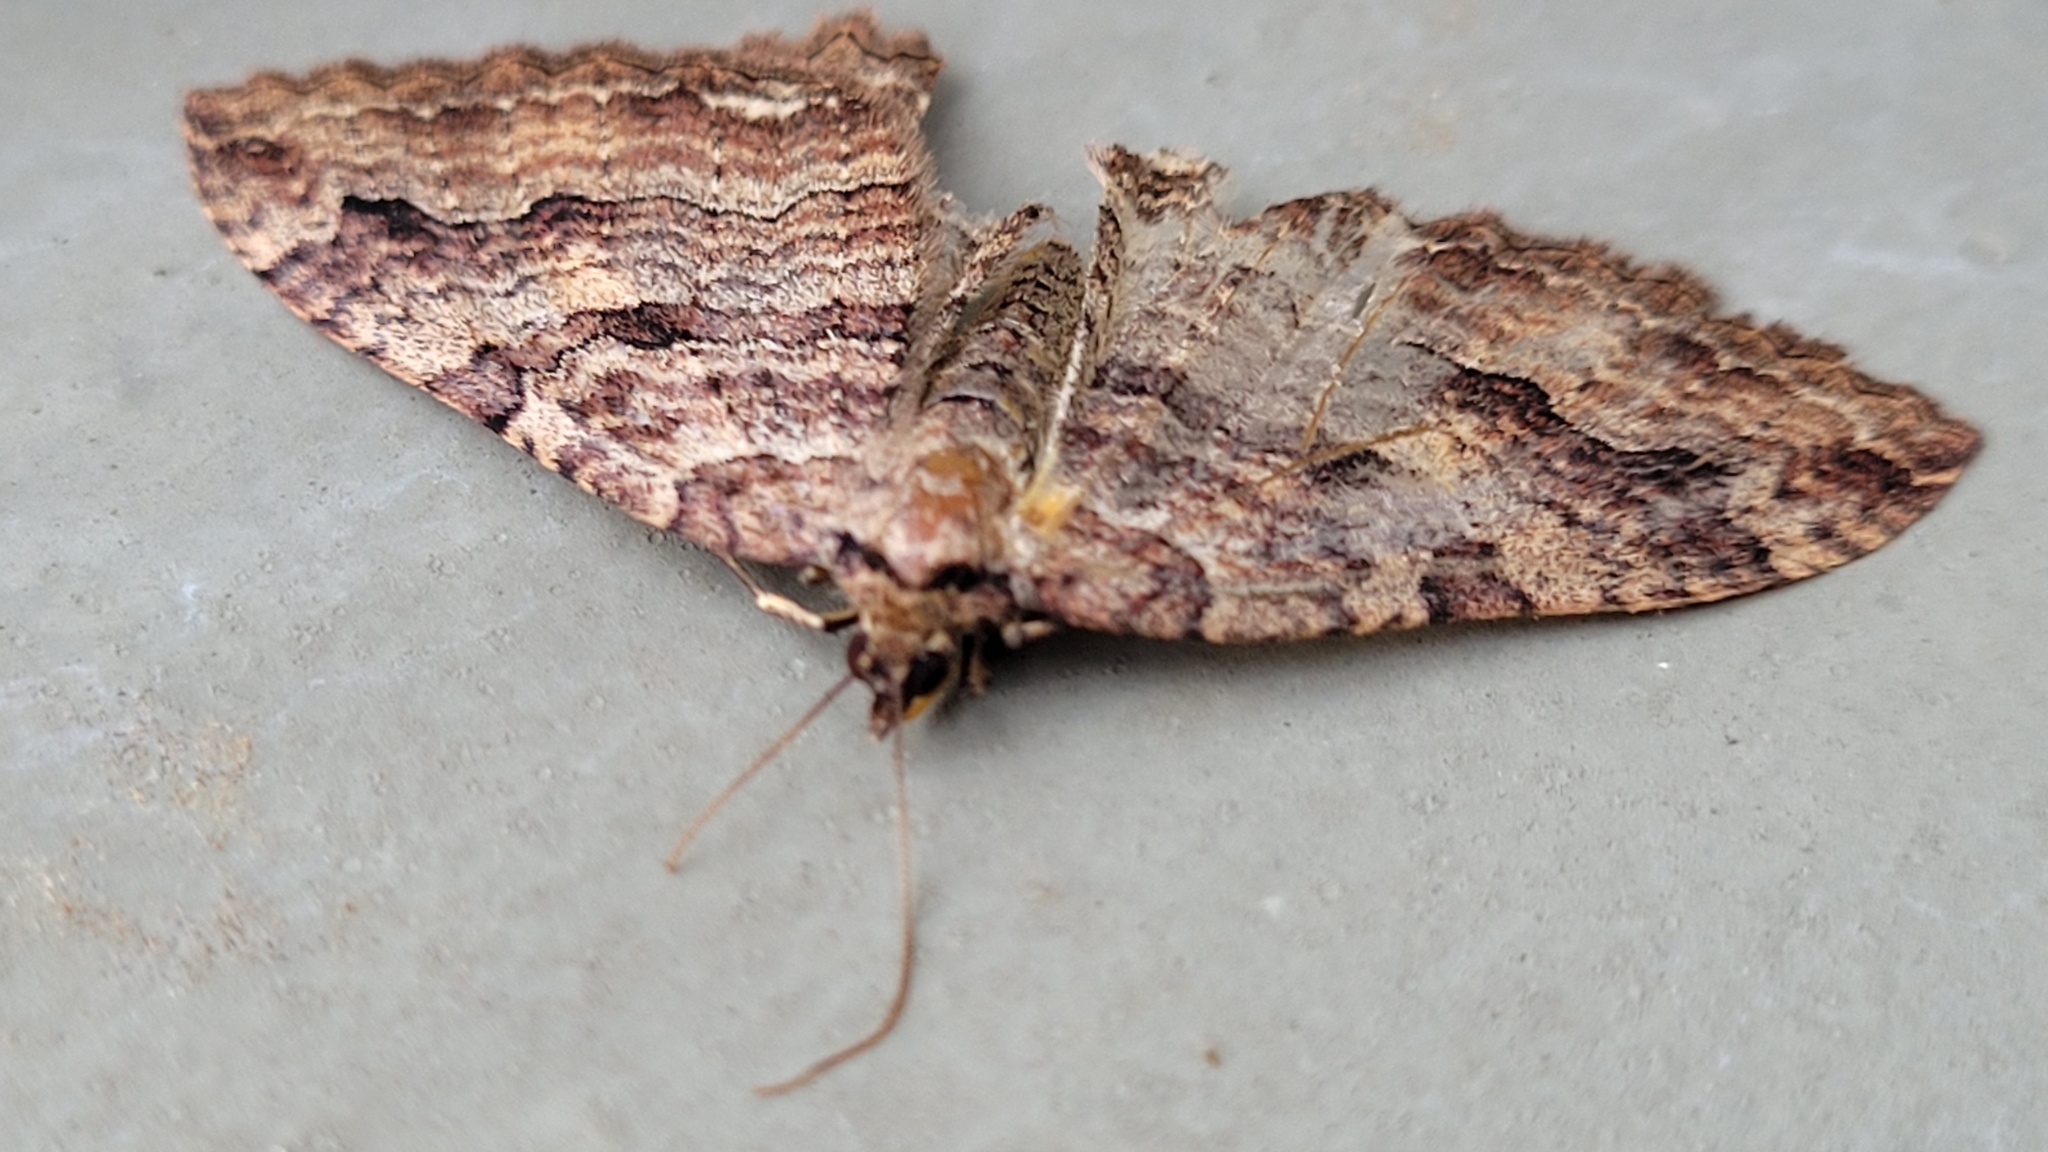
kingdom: Animalia
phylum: Arthropoda
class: Insecta
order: Lepidoptera
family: Geometridae
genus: Triphosa
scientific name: Triphosa haesitata
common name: Tissue moth
